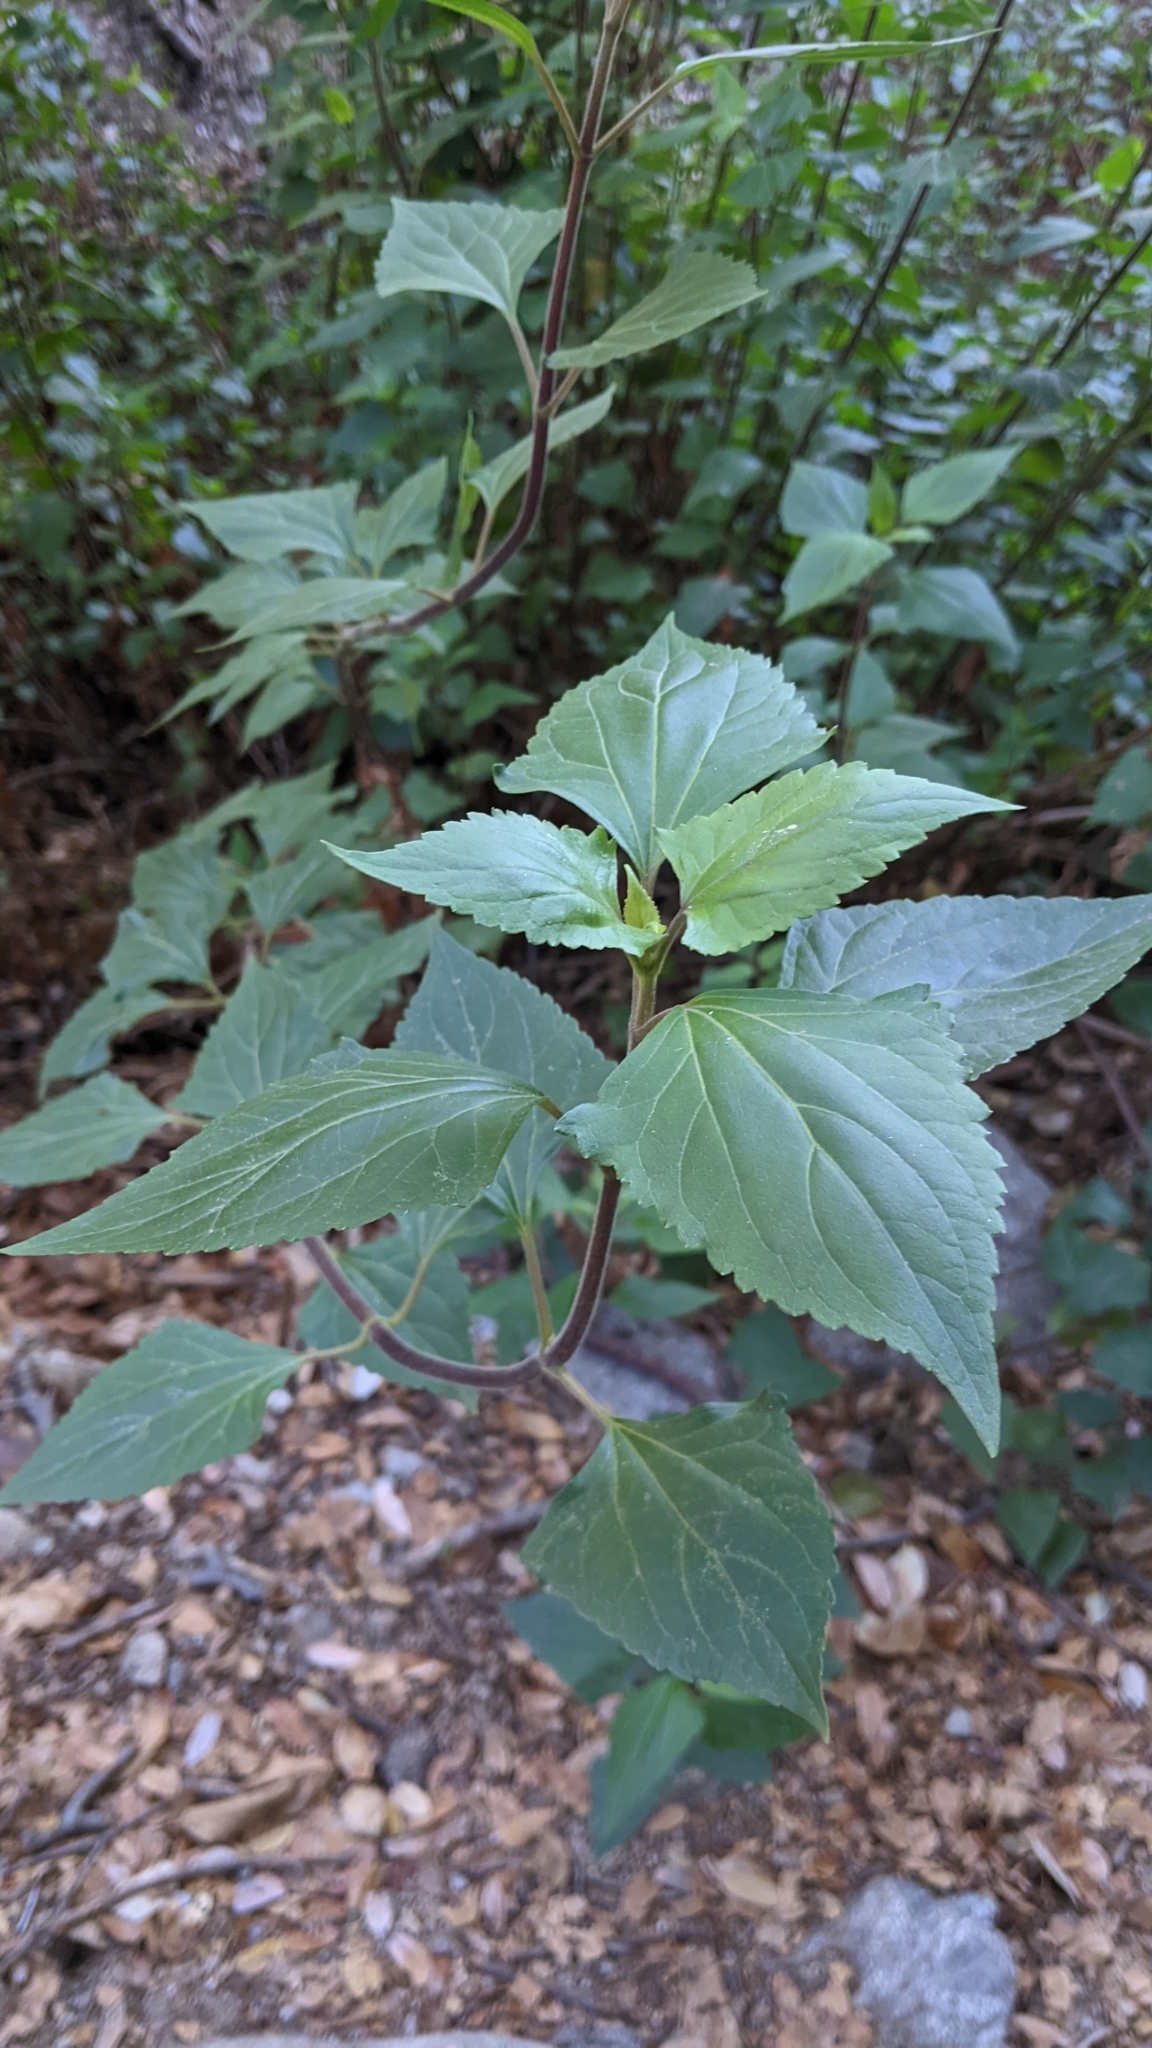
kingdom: Plantae
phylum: Tracheophyta
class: Magnoliopsida
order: Asterales
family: Asteraceae
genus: Ageratina
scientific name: Ageratina adenophora
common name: Sticky snakeroot
